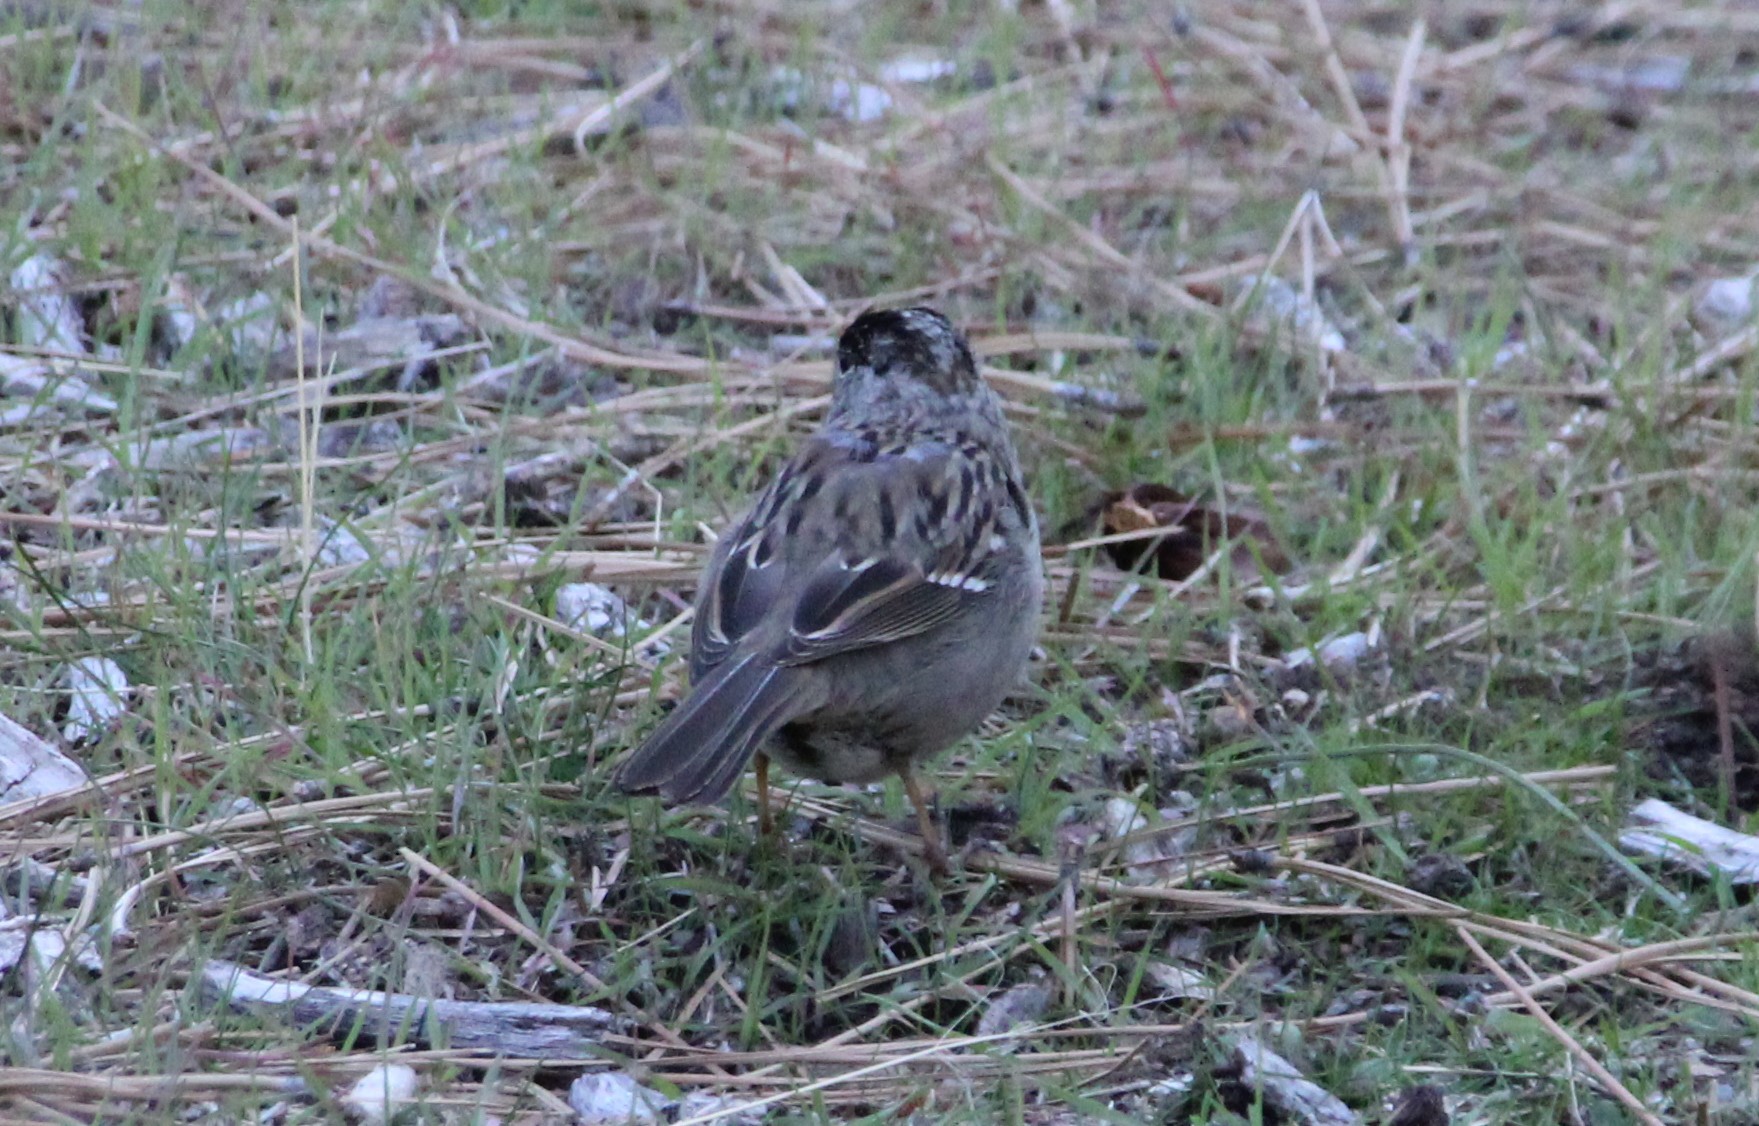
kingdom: Animalia
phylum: Chordata
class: Aves
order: Passeriformes
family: Passerellidae
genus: Zonotrichia
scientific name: Zonotrichia atricapilla
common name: Golden-crowned sparrow
